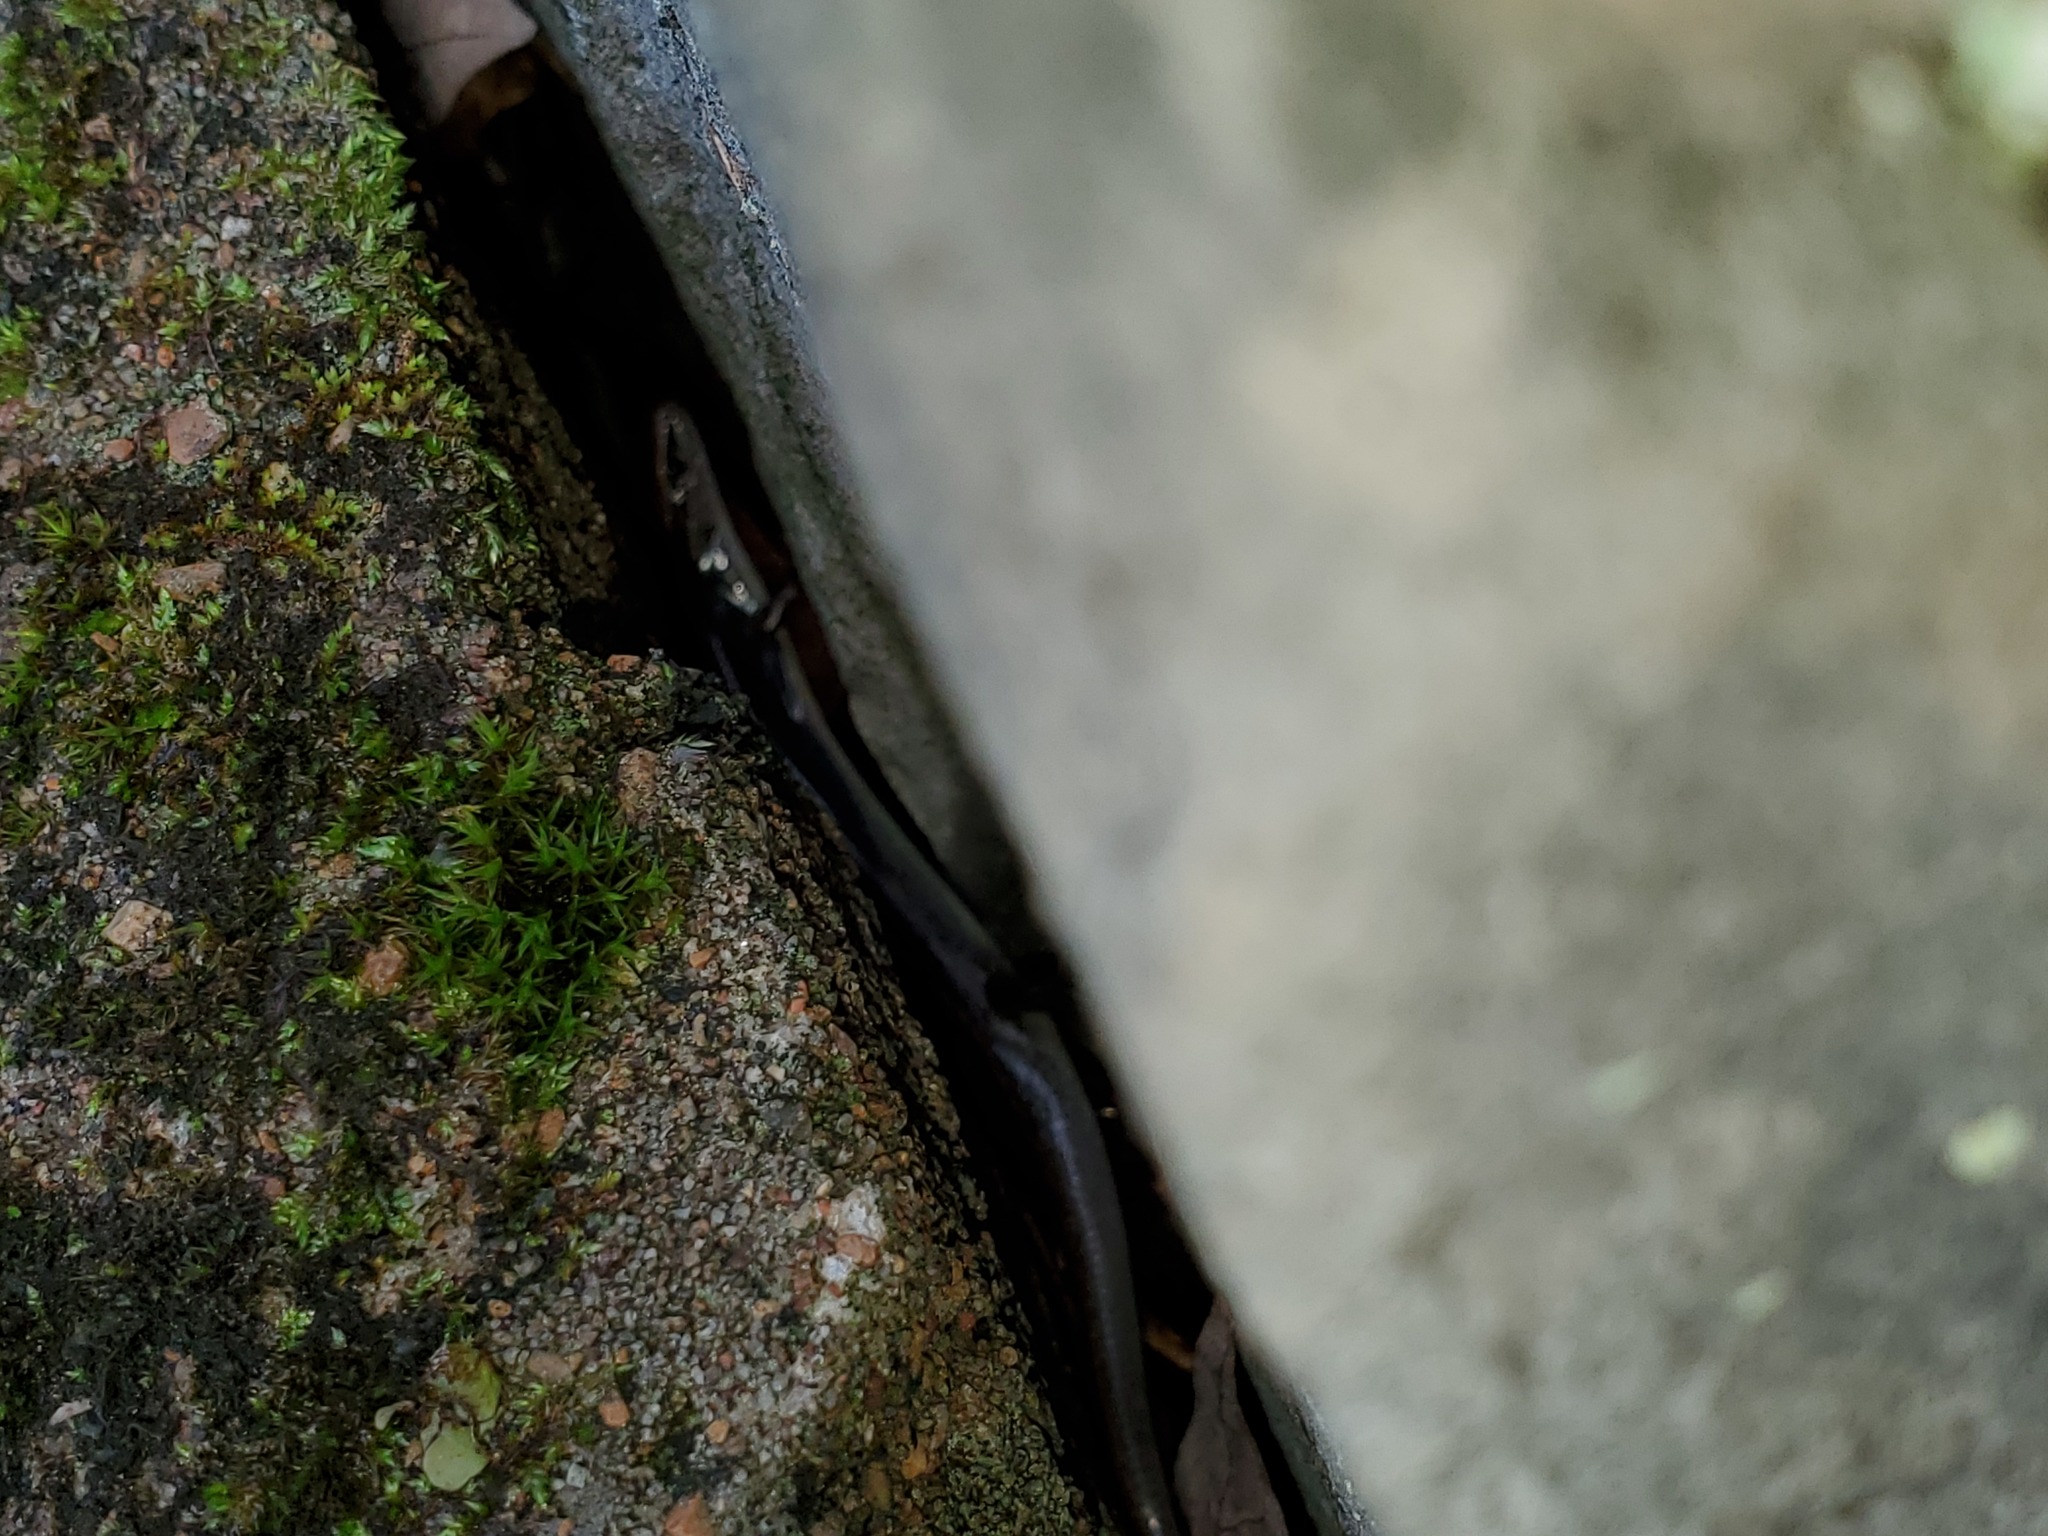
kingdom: Animalia
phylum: Chordata
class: Squamata
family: Scincidae
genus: Scincella
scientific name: Scincella lateralis
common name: Ground skink
